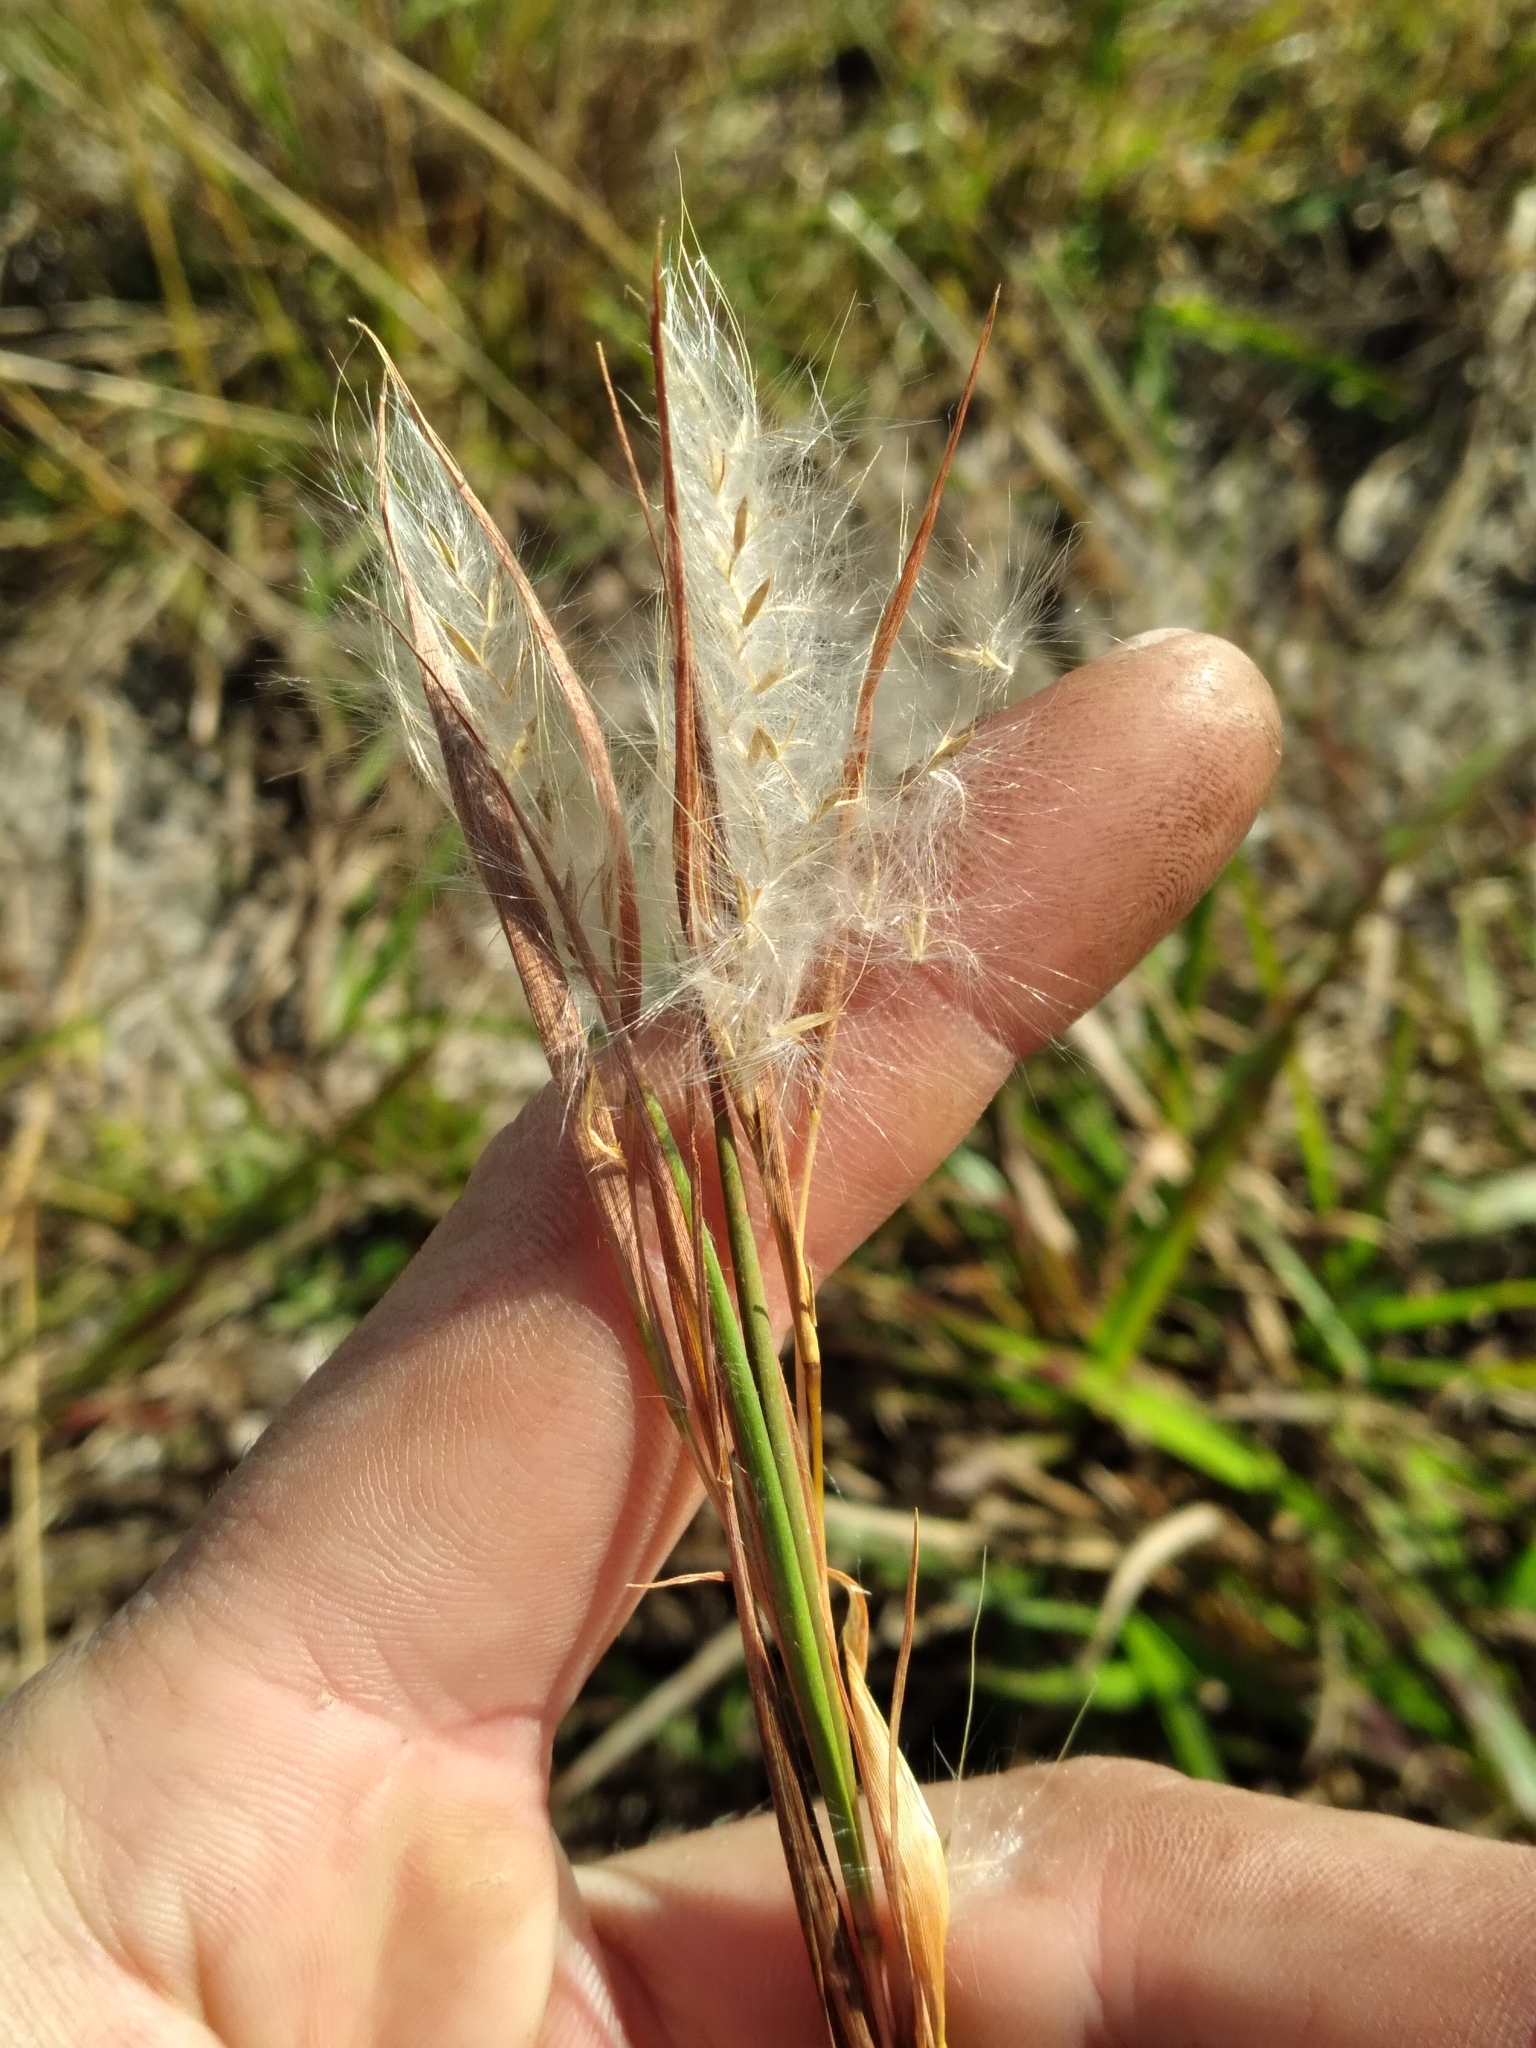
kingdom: Plantae
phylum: Tracheophyta
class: Liliopsida
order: Poales
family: Poaceae
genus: Andropogon
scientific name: Andropogon gyrans
